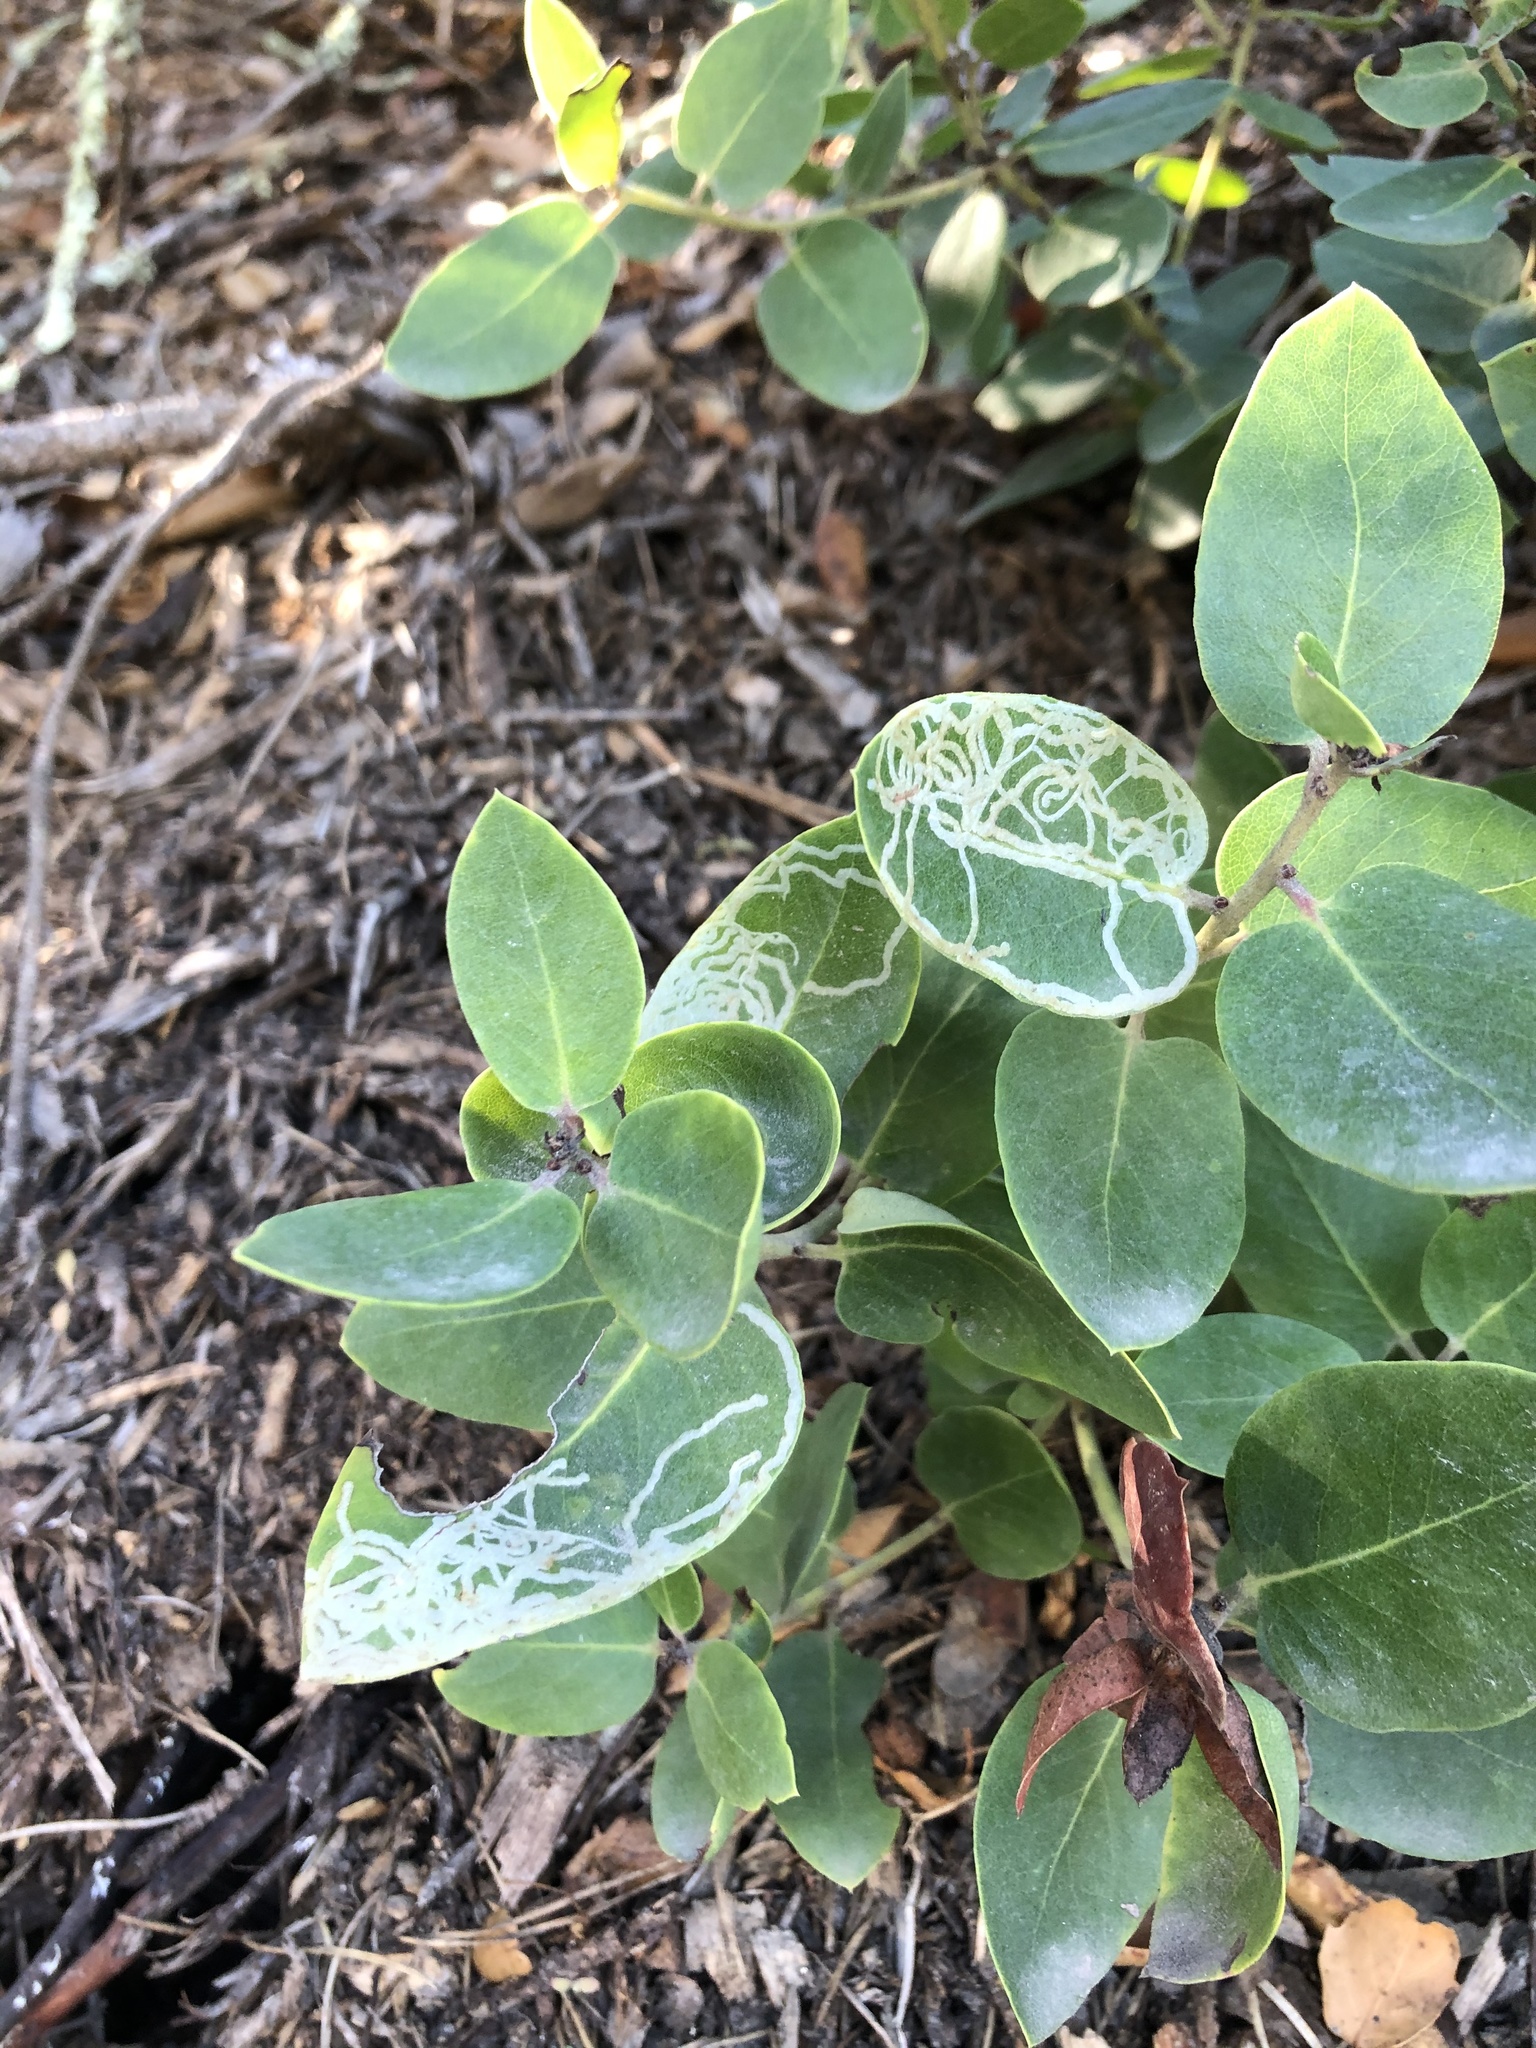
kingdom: Animalia
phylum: Arthropoda
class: Insecta
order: Lepidoptera
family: Gracillariidae
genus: Marmara
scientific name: Marmara arbutiella
